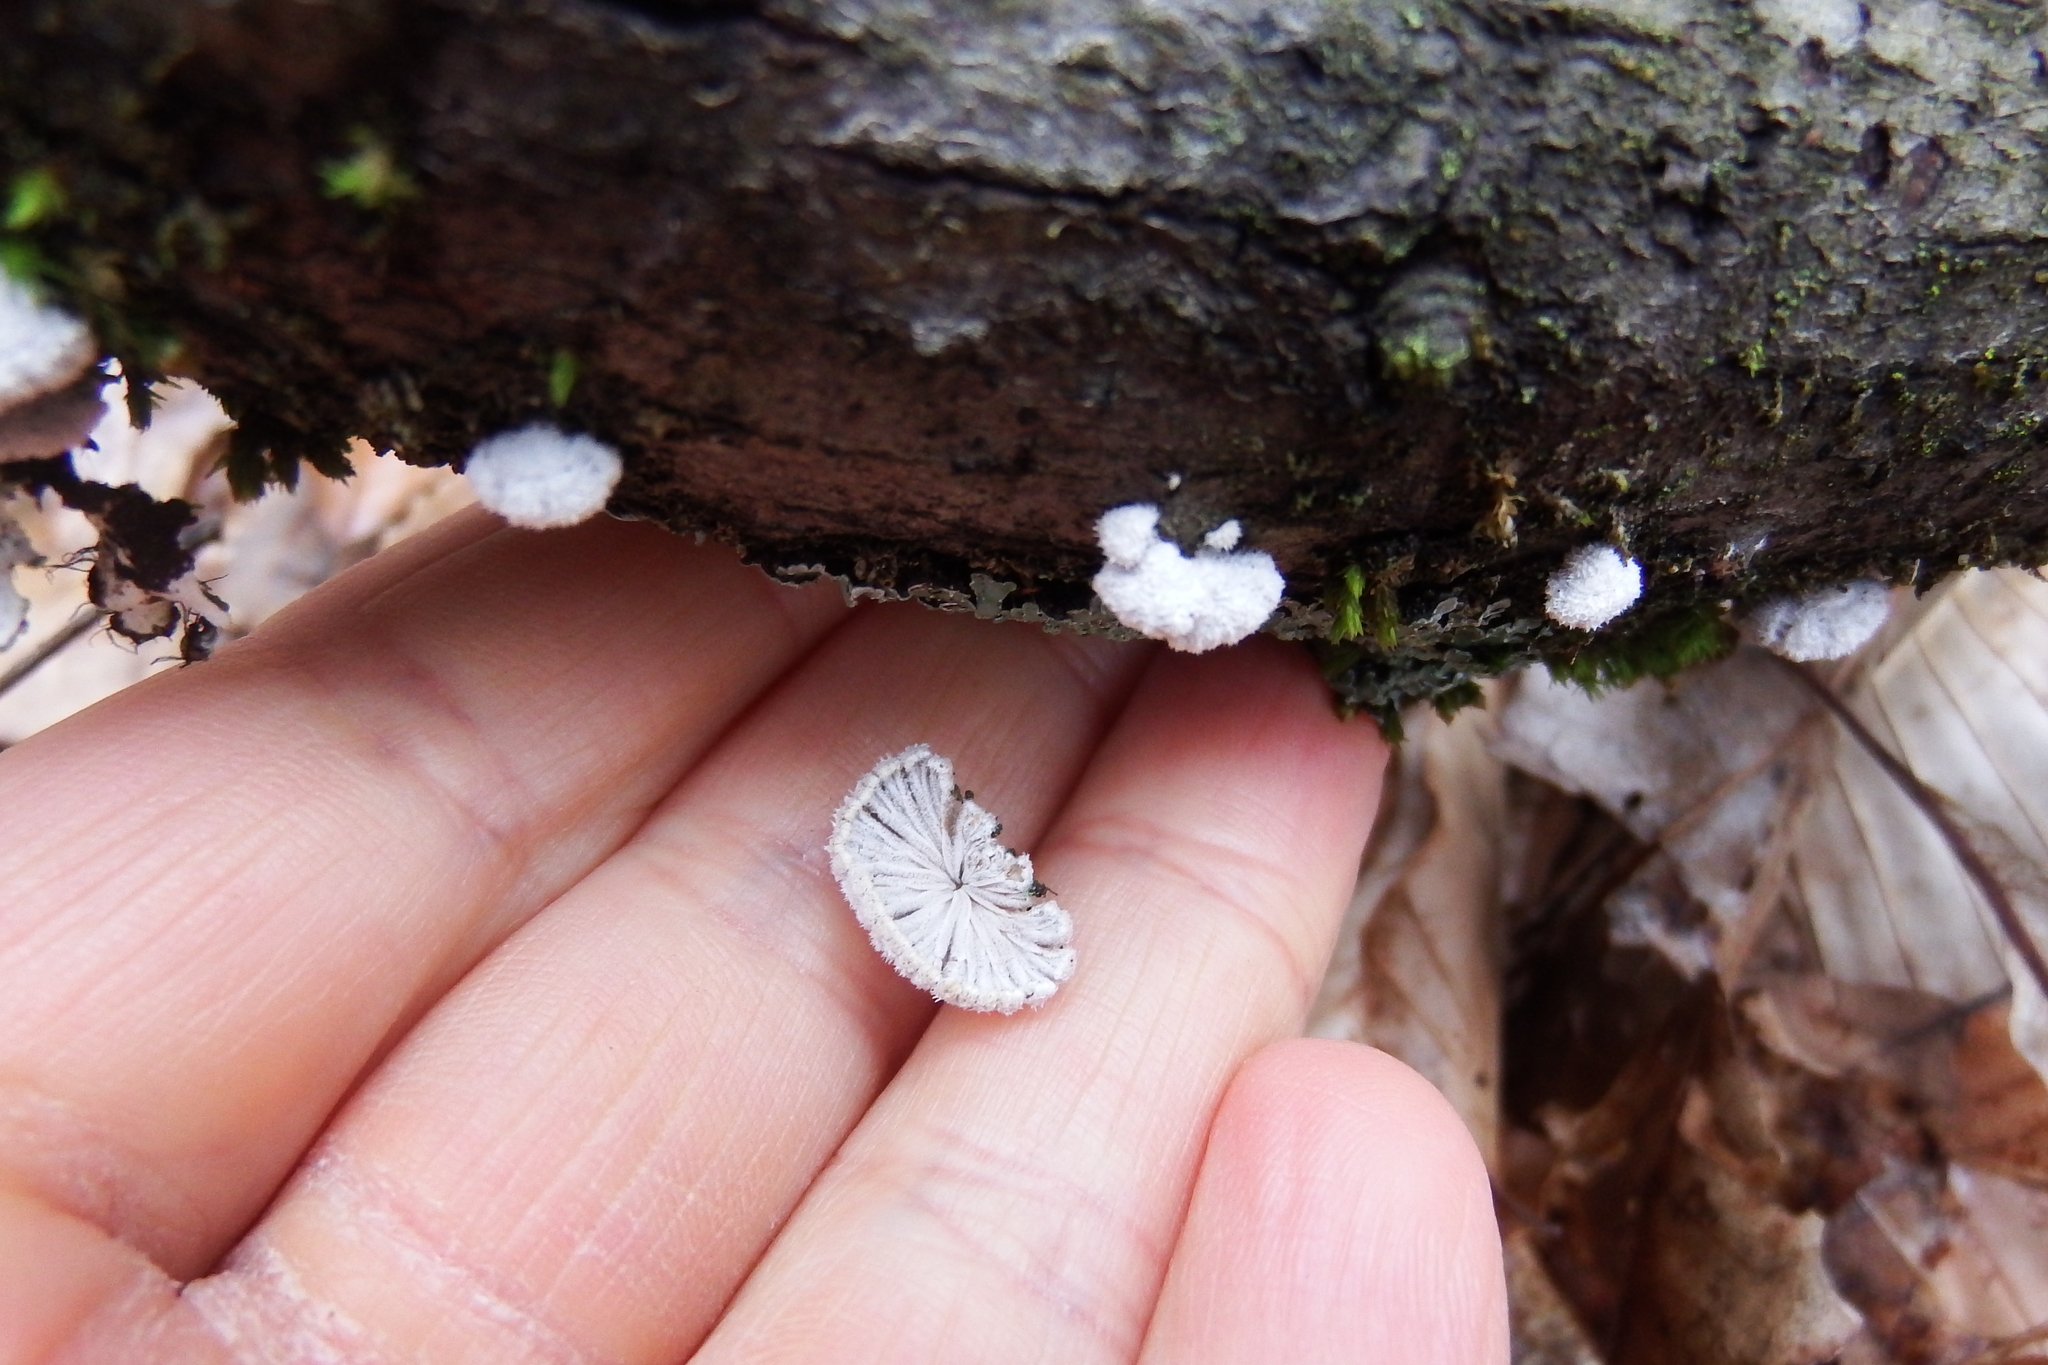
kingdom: Fungi
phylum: Basidiomycota
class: Agaricomycetes
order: Agaricales
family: Schizophyllaceae
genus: Schizophyllum
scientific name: Schizophyllum commune
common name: Common porecrust
